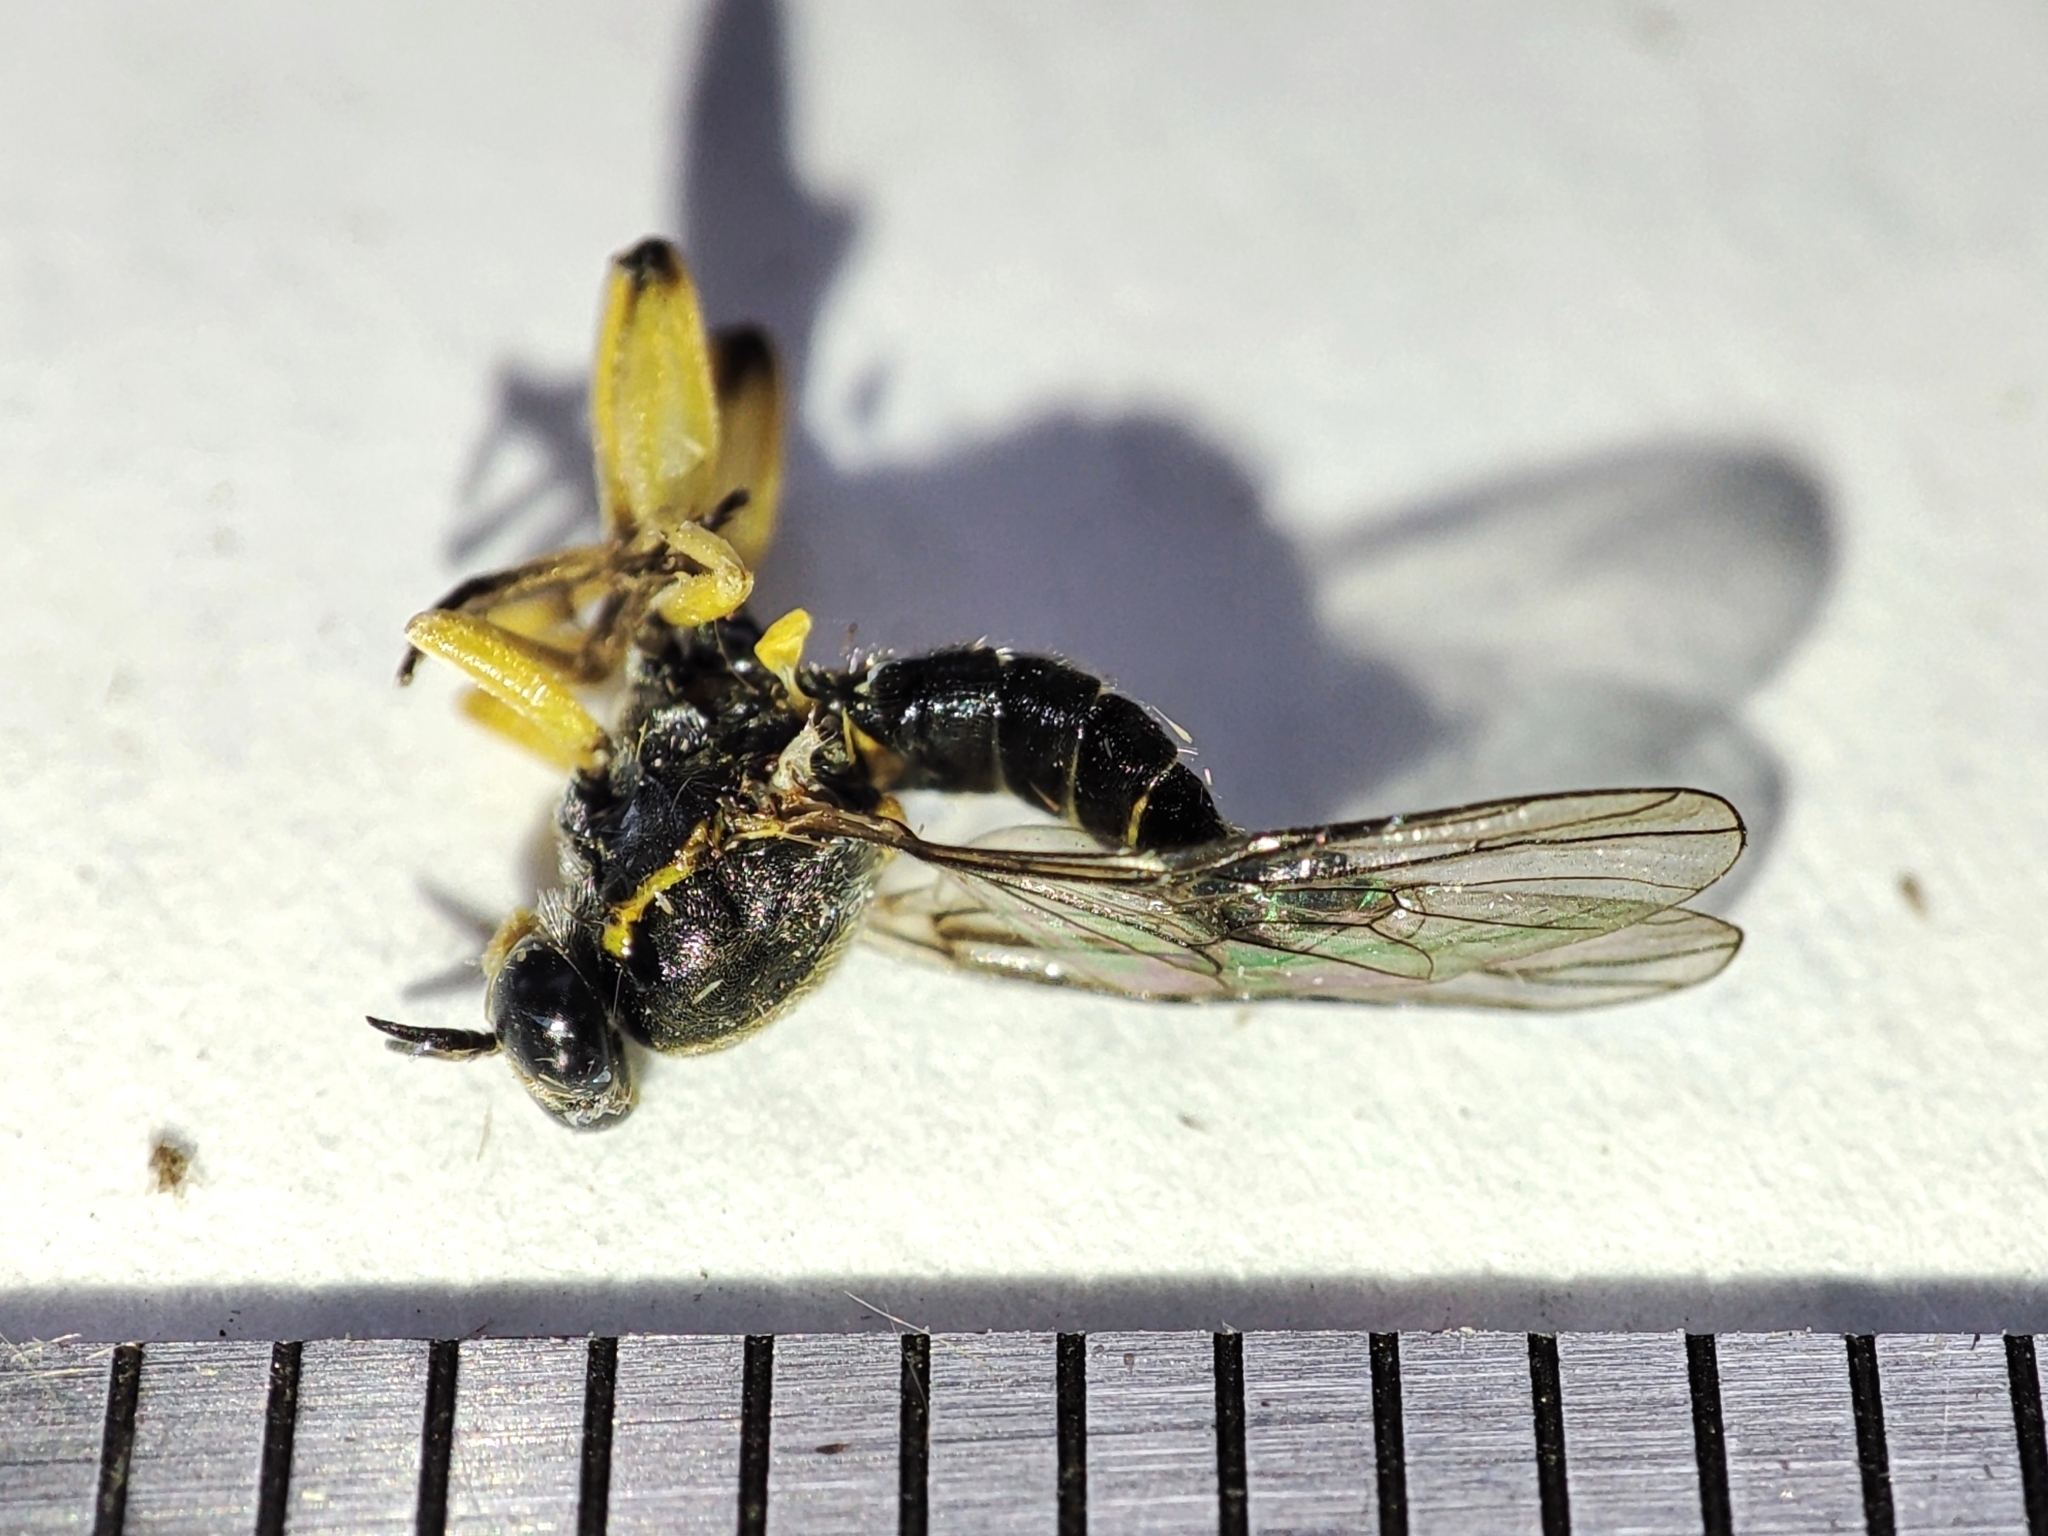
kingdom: Animalia
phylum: Arthropoda
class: Insecta
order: Diptera
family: Xylomyidae
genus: Solva
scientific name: Solva marginata
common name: Drab wood-soldierfly
